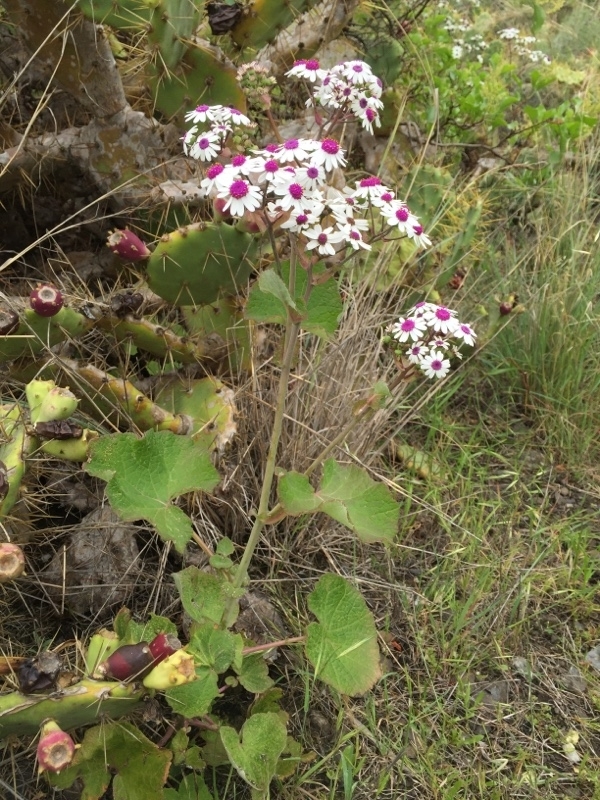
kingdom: Plantae
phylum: Tracheophyta
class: Magnoliopsida
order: Asterales
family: Asteraceae
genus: Pericallis
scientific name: Pericallis webbii
